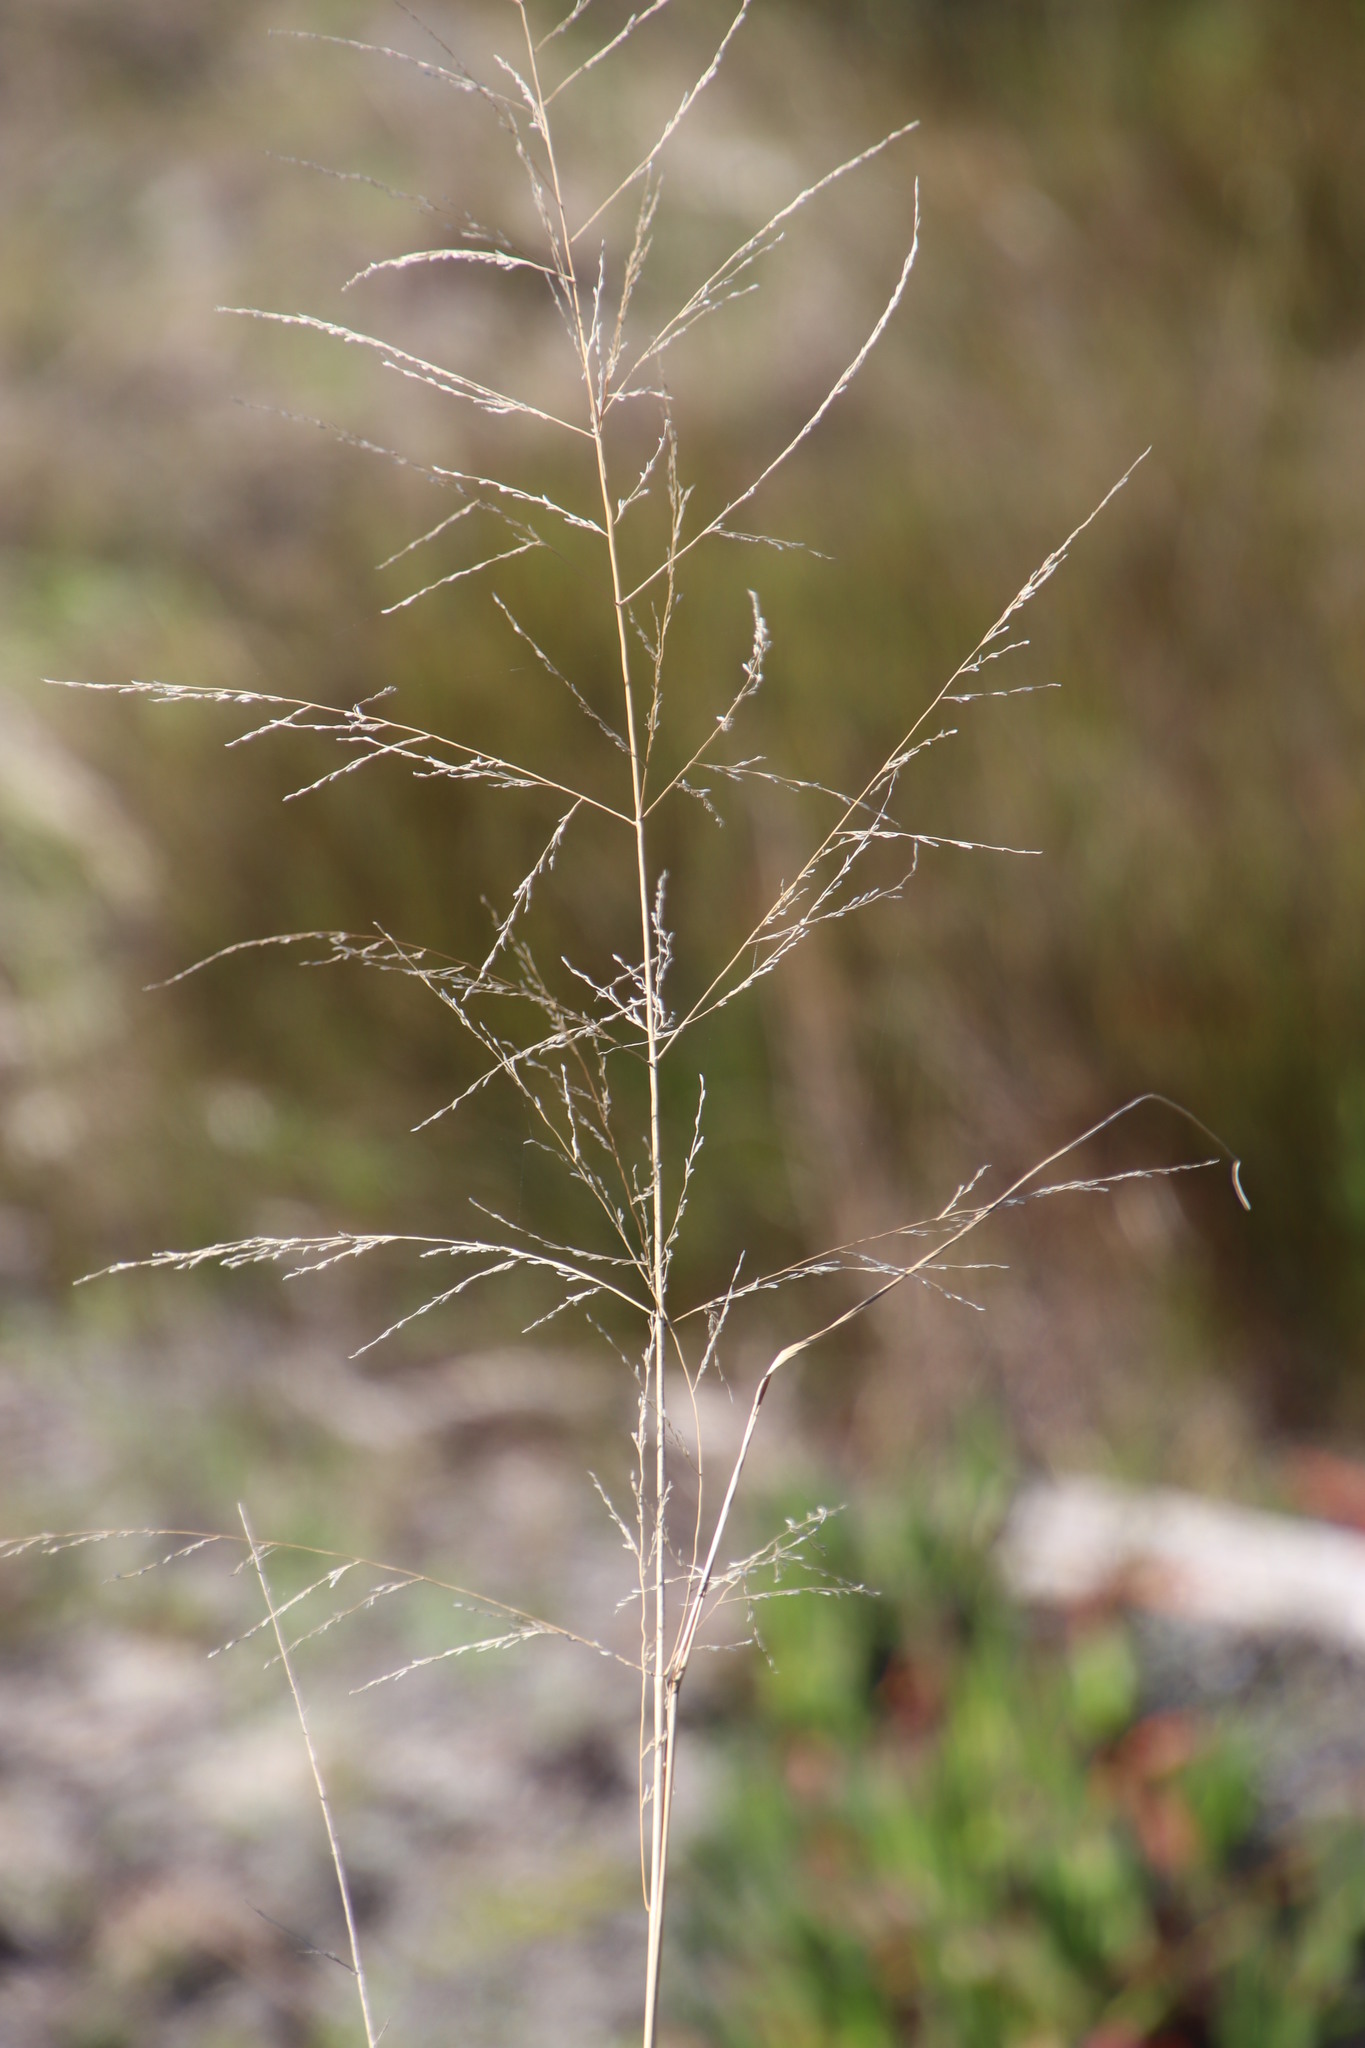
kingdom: Plantae
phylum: Tracheophyta
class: Liliopsida
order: Poales
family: Poaceae
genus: Eragrostis
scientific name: Eragrostis curvula
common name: African love-grass
